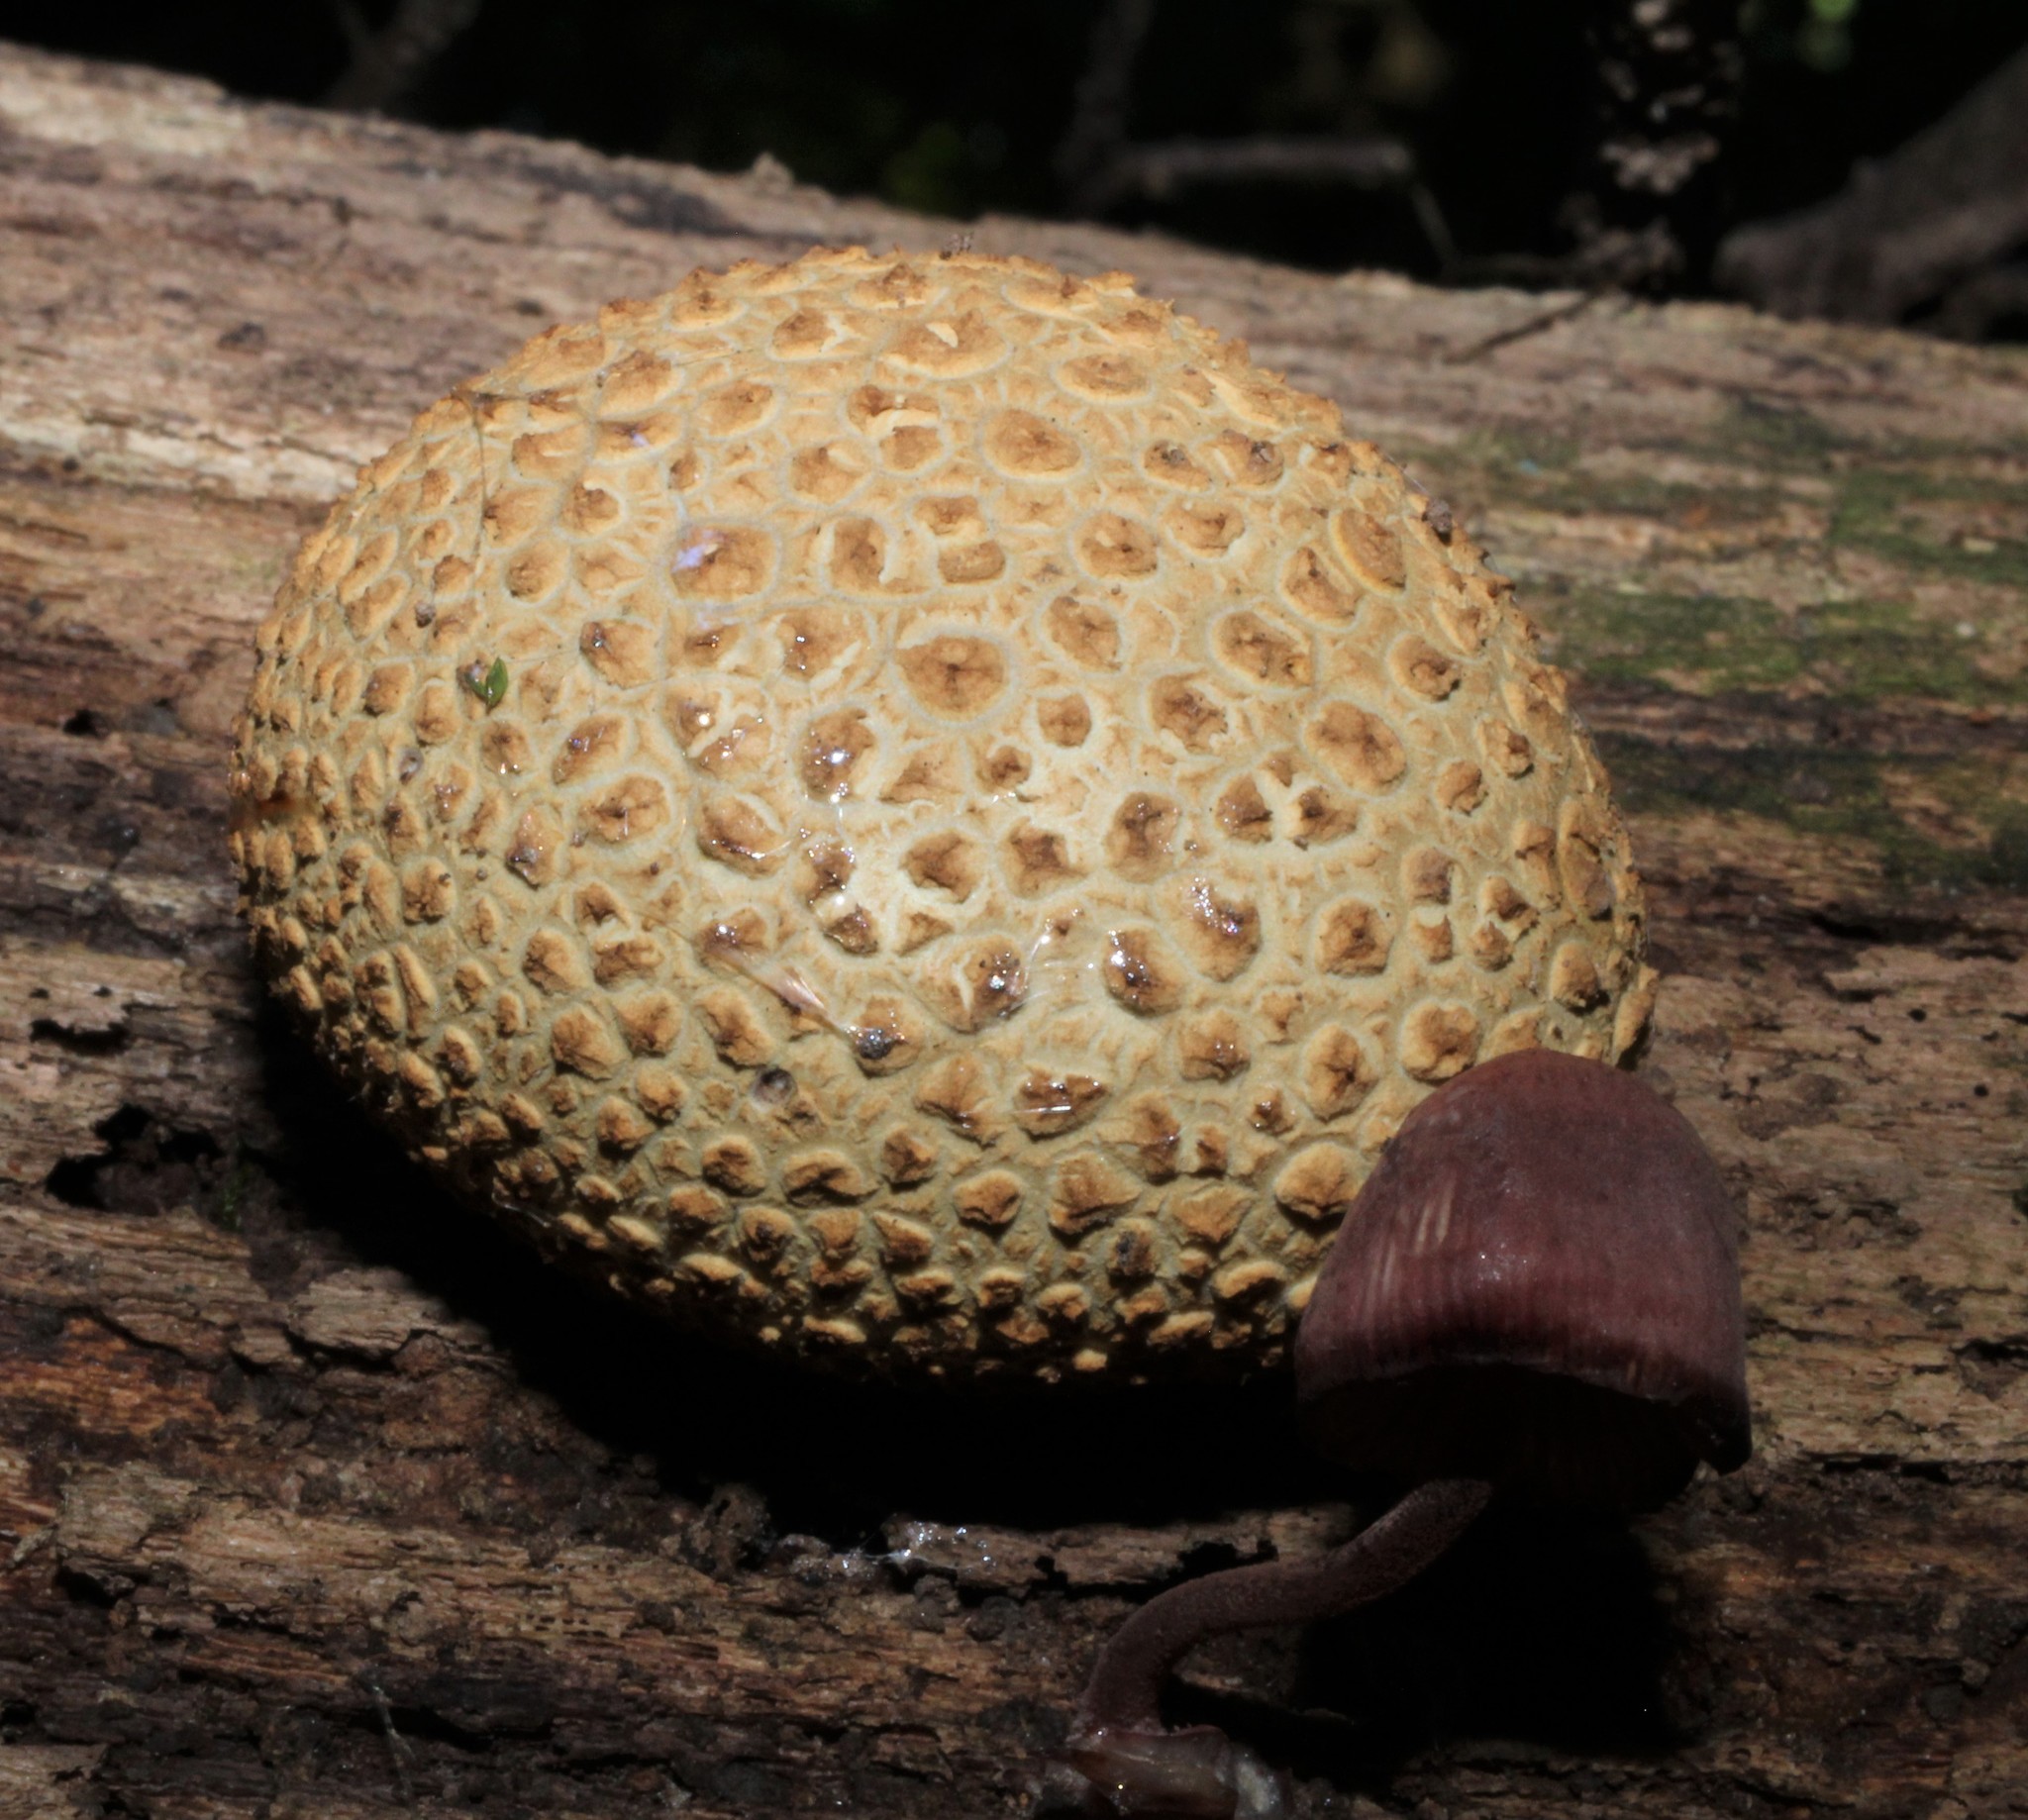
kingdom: Fungi
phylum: Basidiomycota
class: Agaricomycetes
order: Boletales
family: Sclerodermataceae
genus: Scleroderma
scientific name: Scleroderma citrinum
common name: Common earthball
